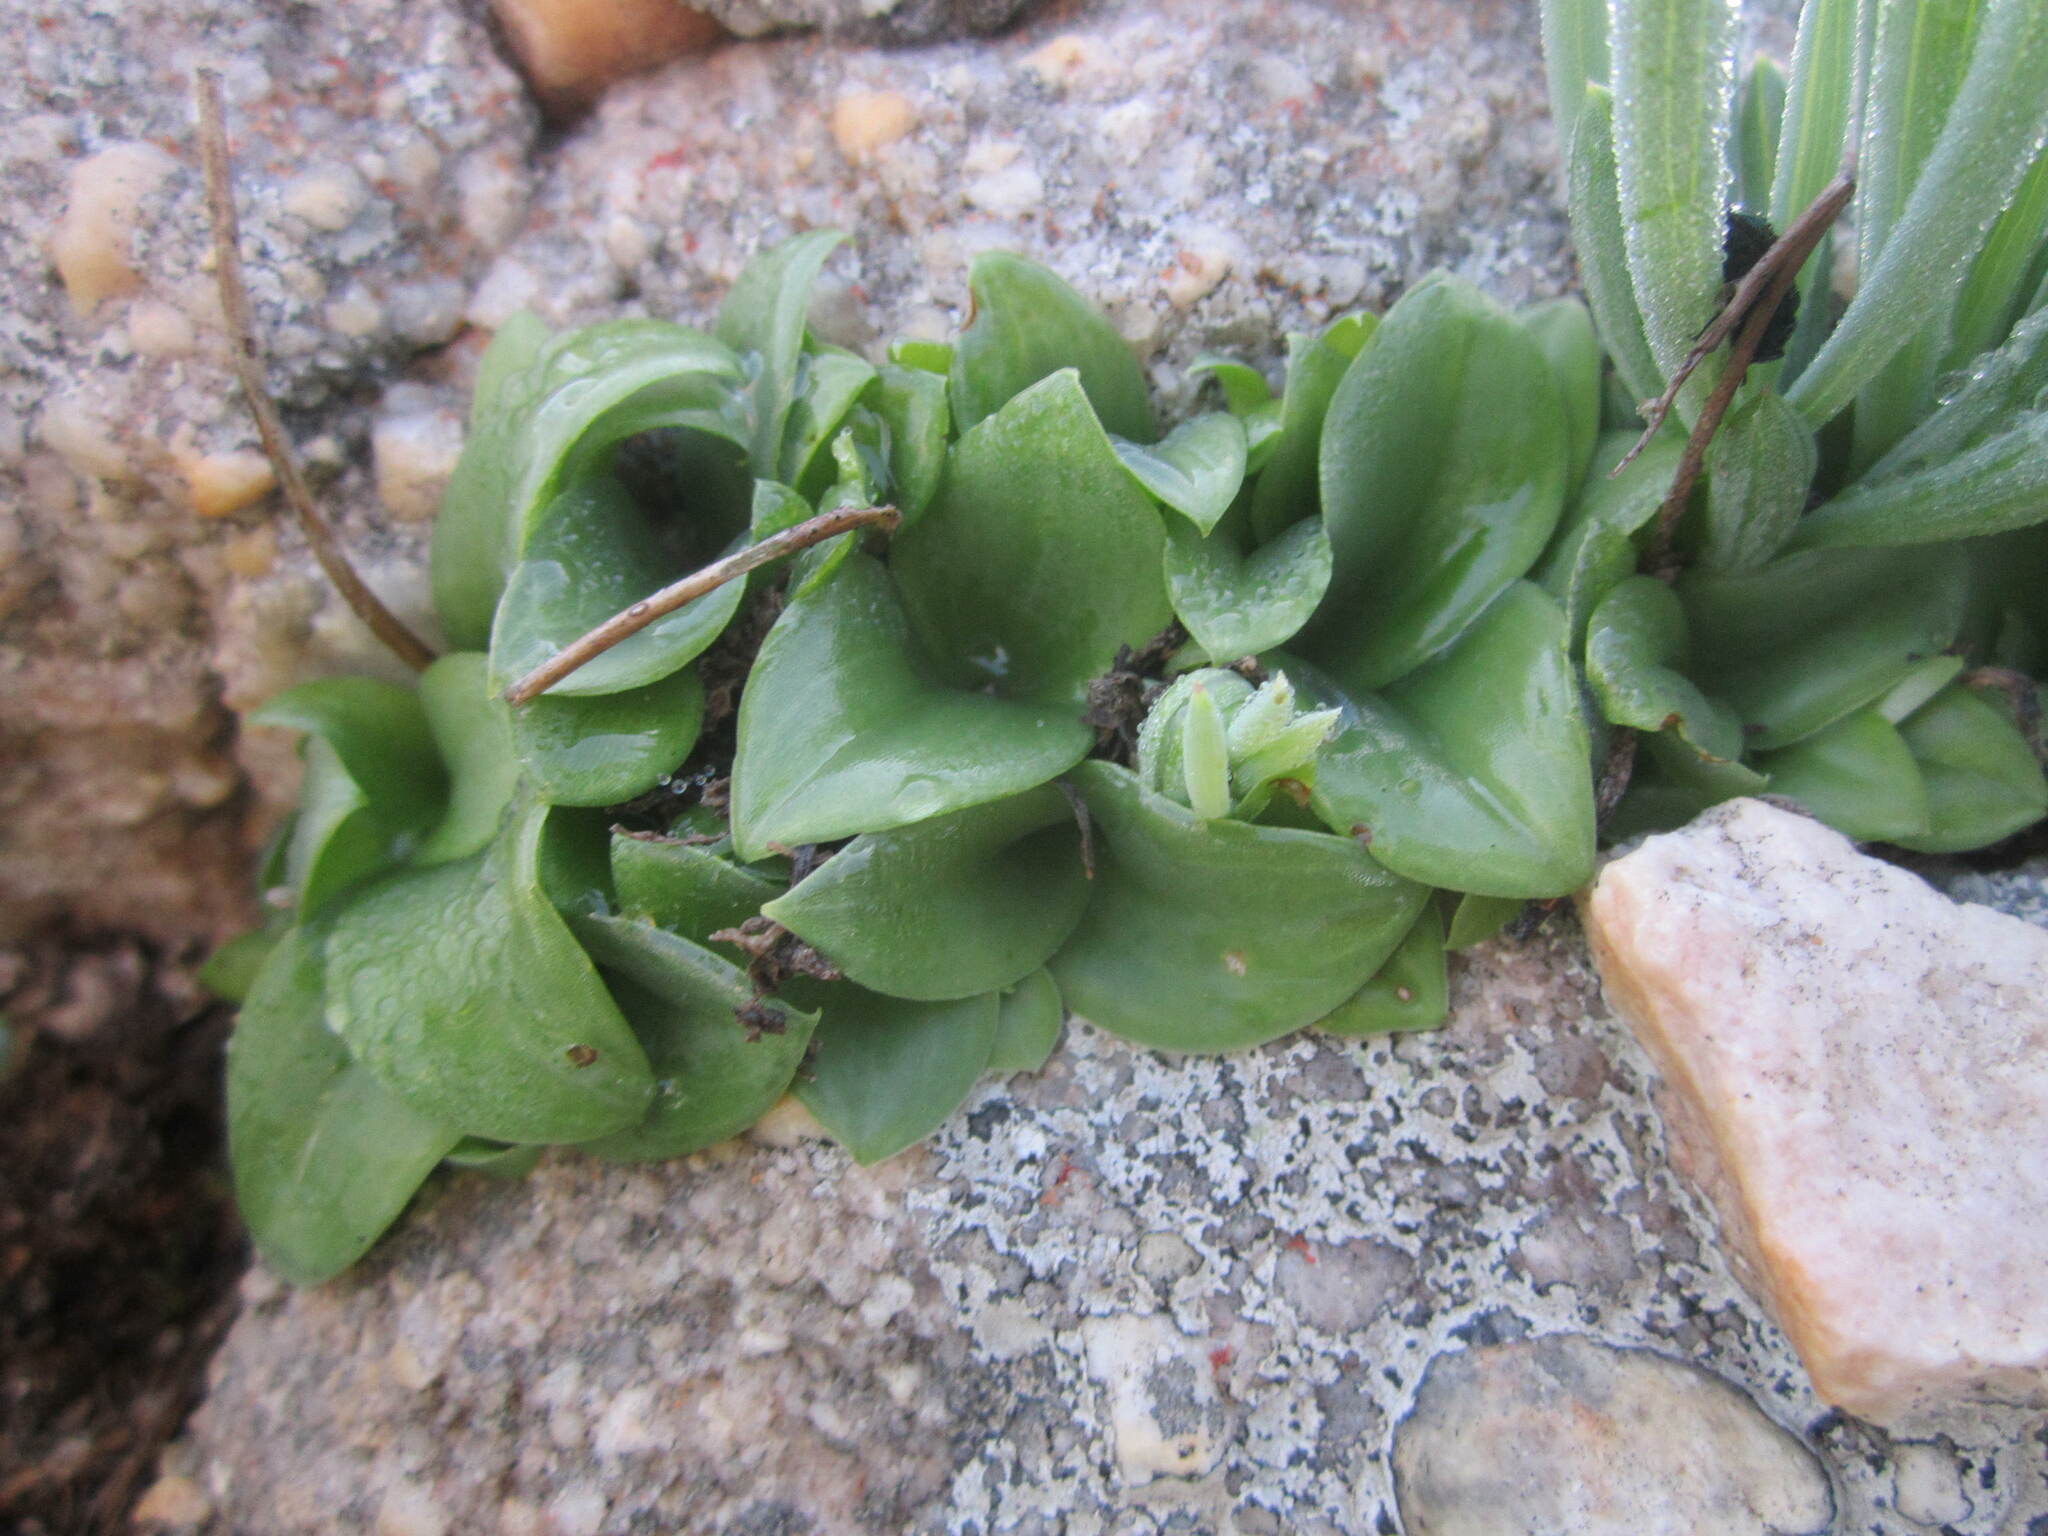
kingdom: Plantae
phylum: Tracheophyta
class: Liliopsida
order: Asparagales
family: Orchidaceae
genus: Holothrix
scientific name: Holothrix secunda
